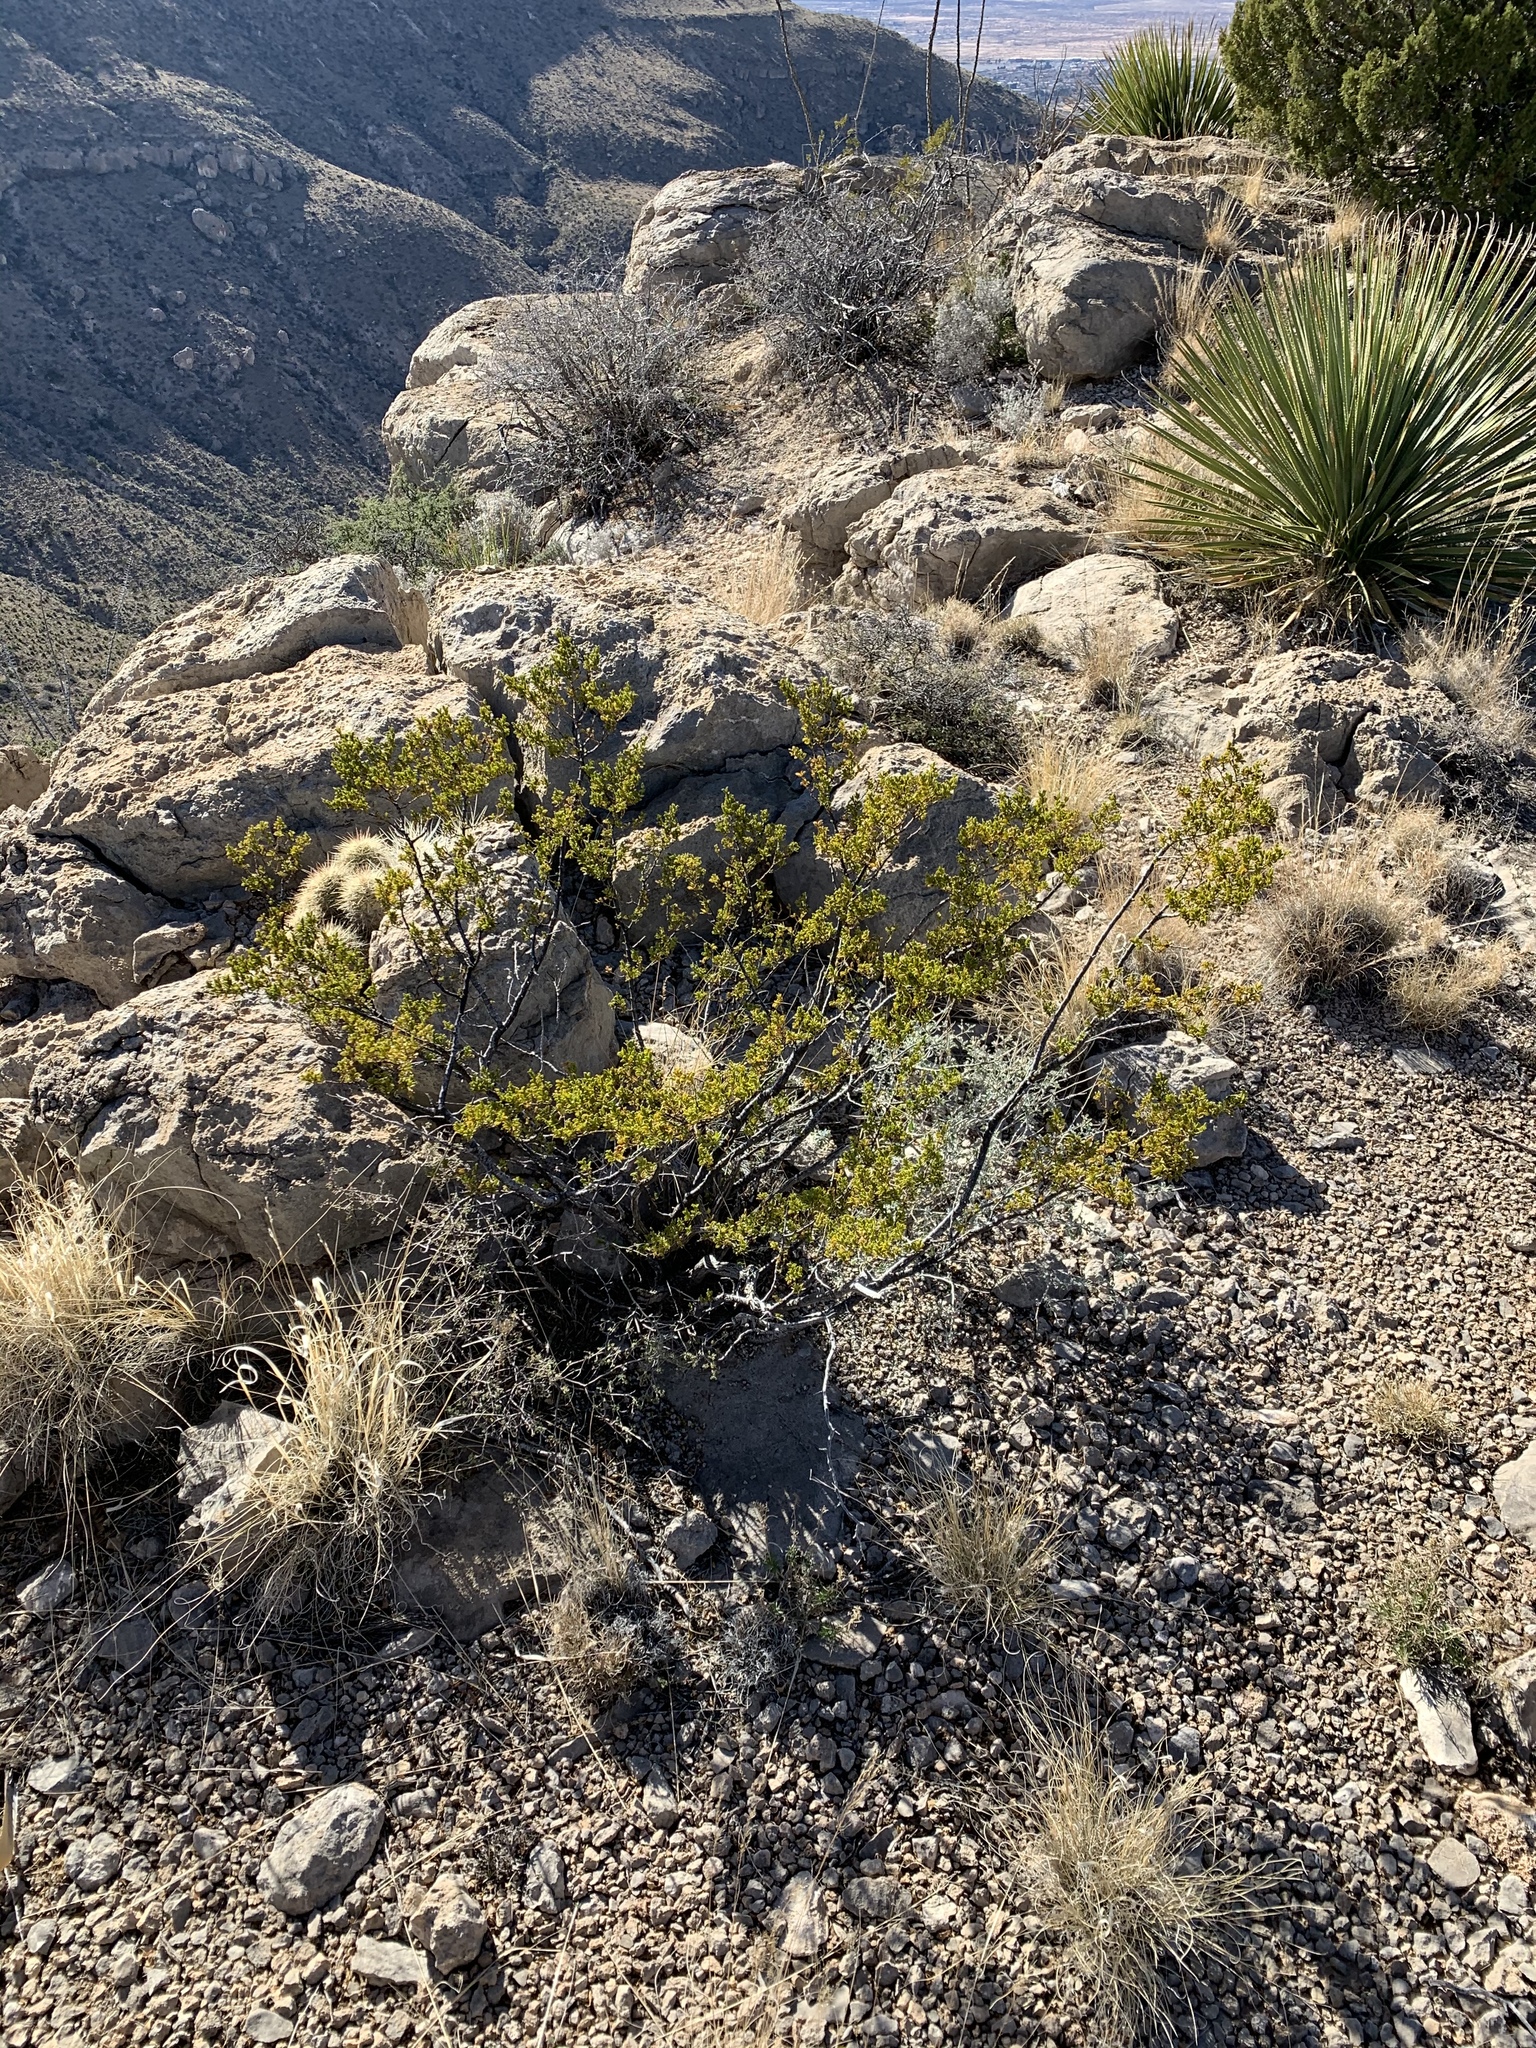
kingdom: Plantae
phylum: Tracheophyta
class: Magnoliopsida
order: Zygophyllales
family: Zygophyllaceae
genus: Larrea
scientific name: Larrea tridentata
